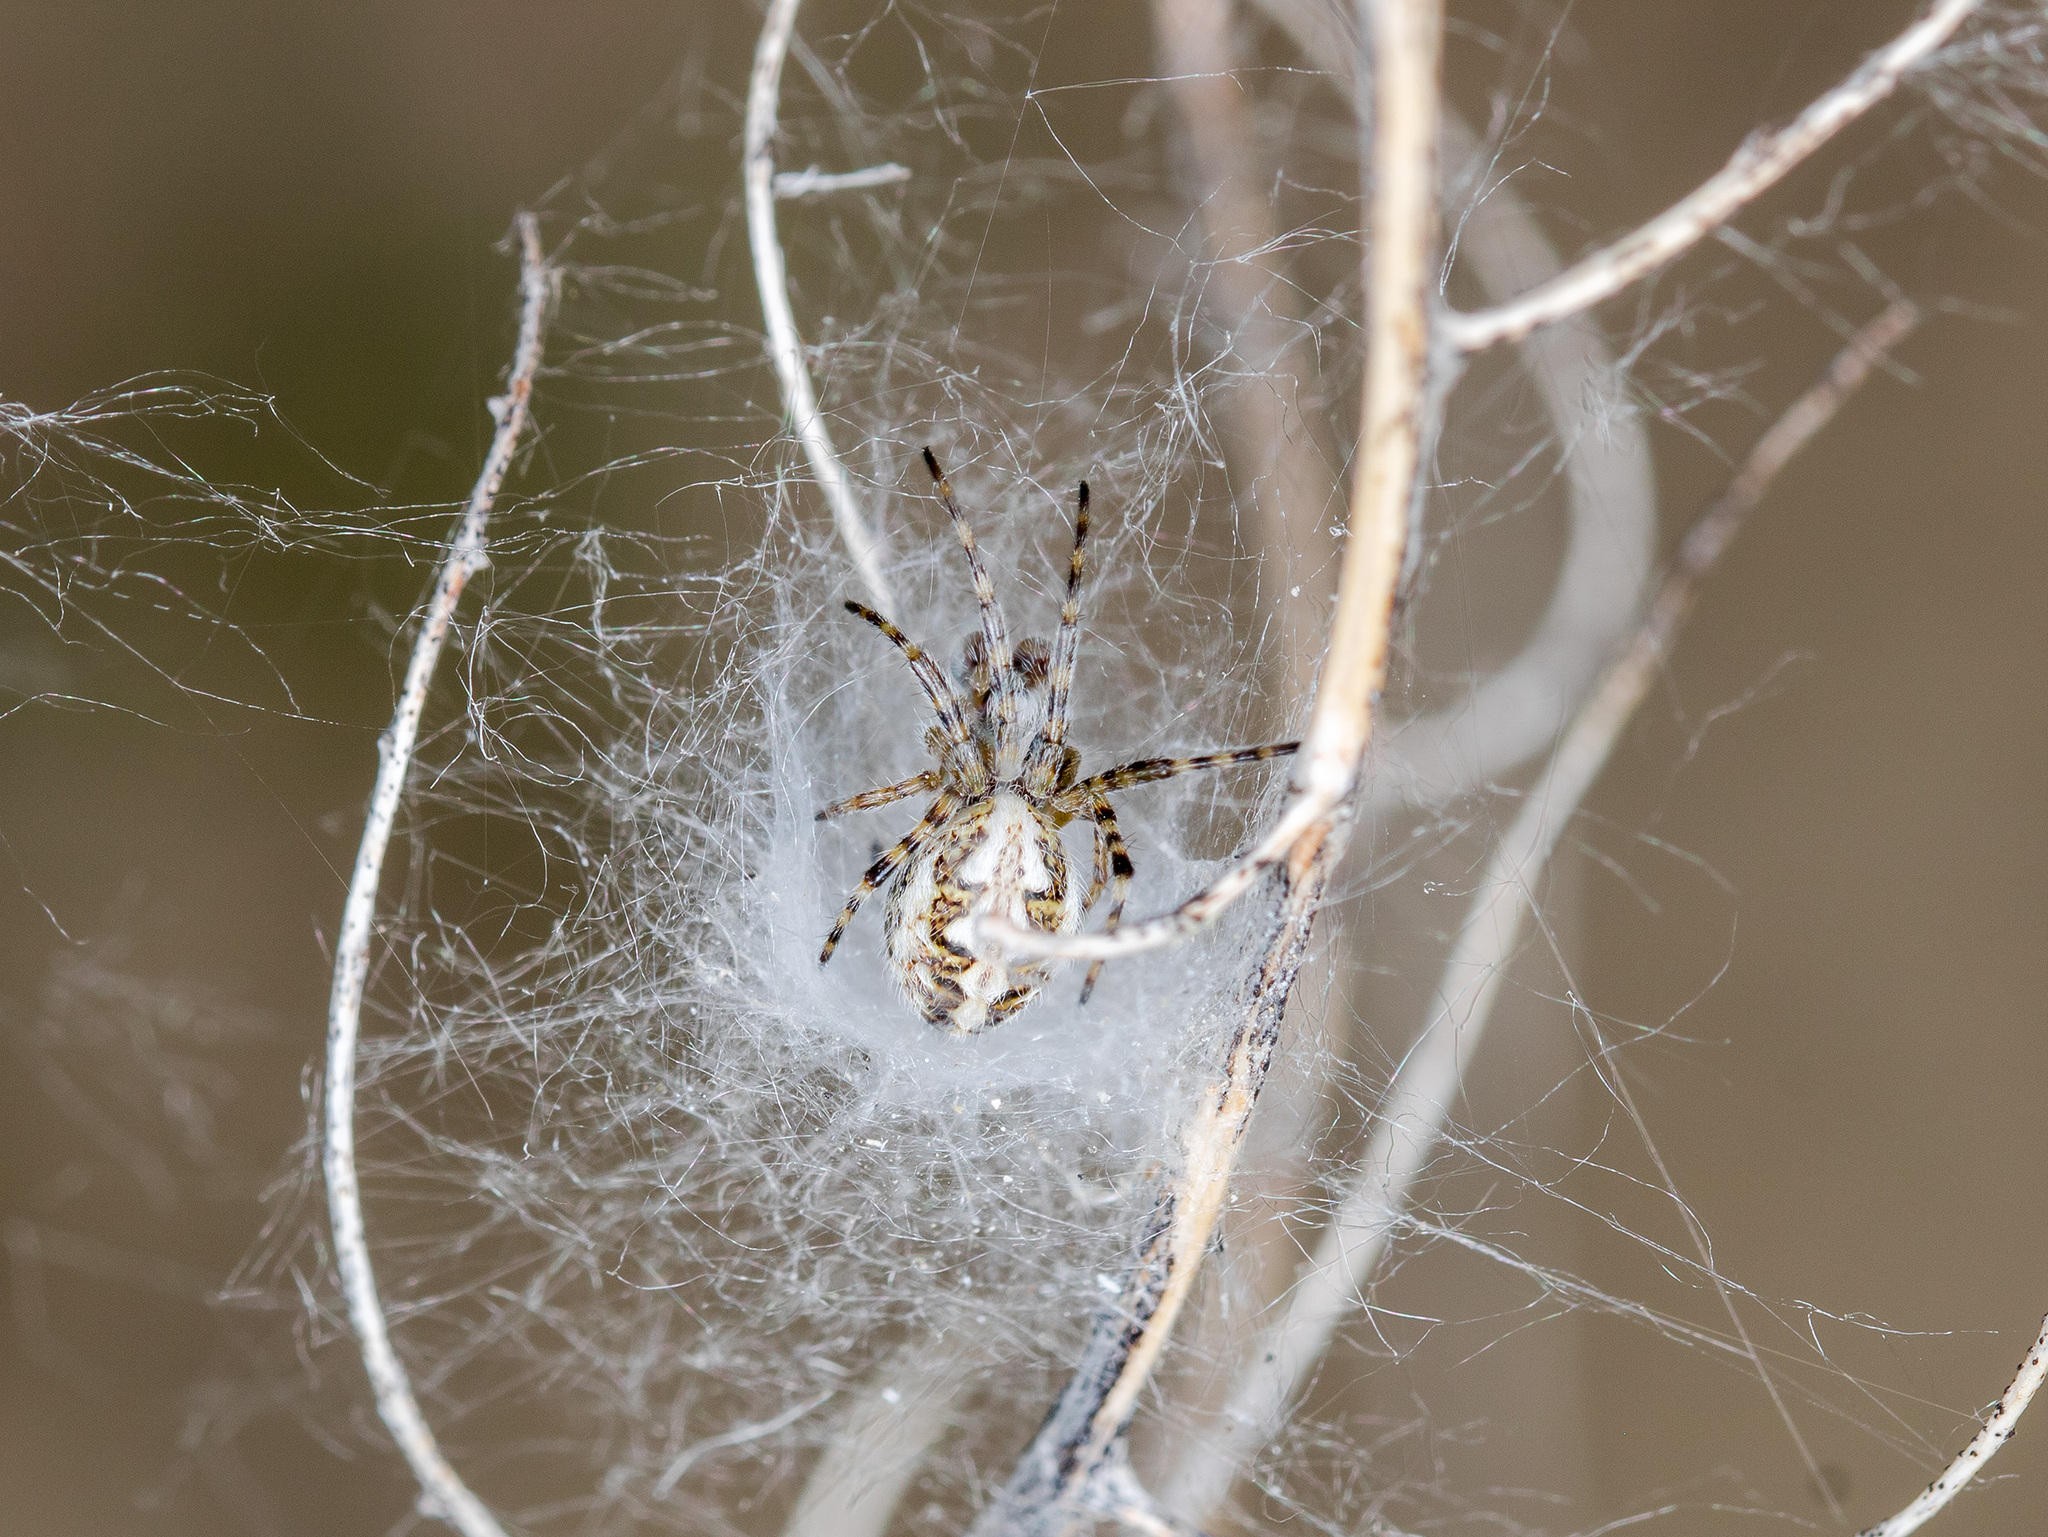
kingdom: Animalia
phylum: Arthropoda
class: Arachnida
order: Araneae
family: Araneidae
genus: Aculepeira
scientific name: Aculepeira armida
